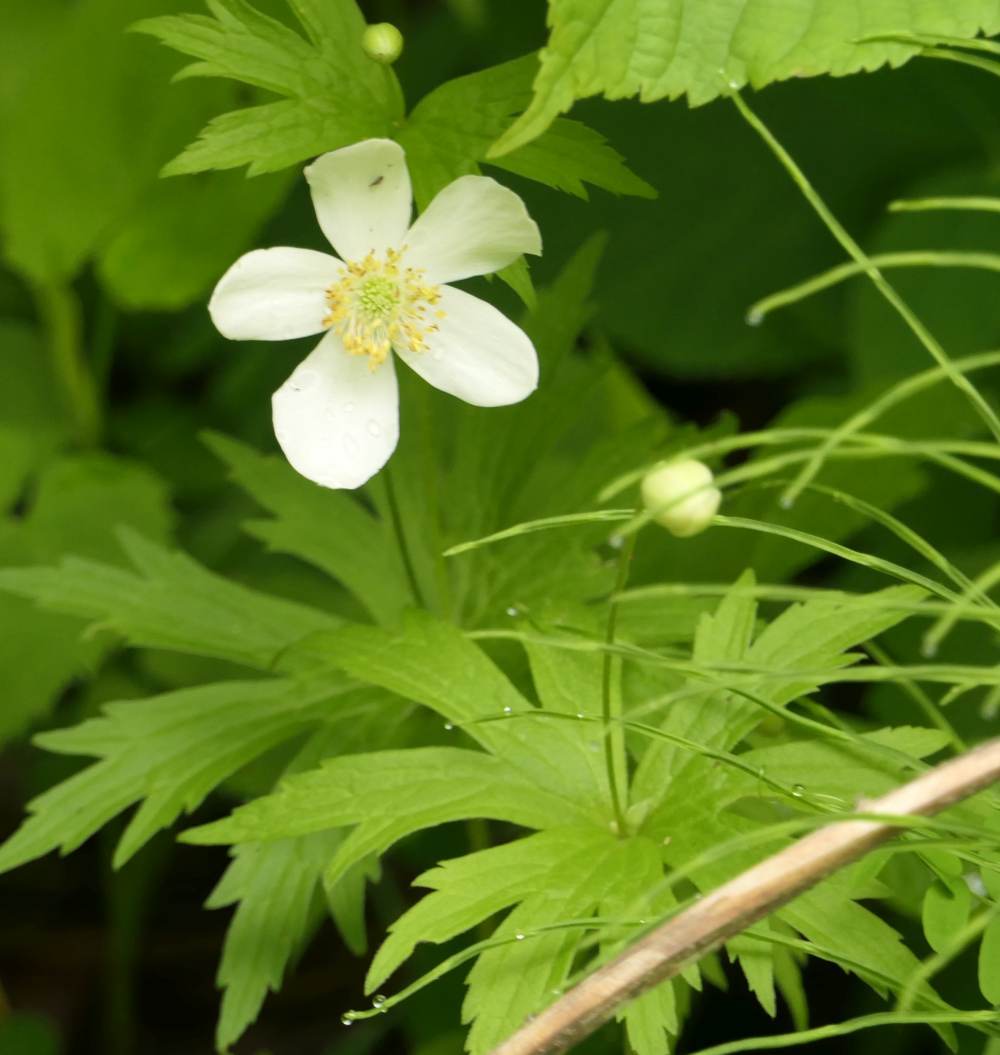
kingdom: Plantae
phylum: Tracheophyta
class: Magnoliopsida
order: Ranunculales
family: Ranunculaceae
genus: Anemonastrum
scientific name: Anemonastrum canadense
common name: Canada anemone
